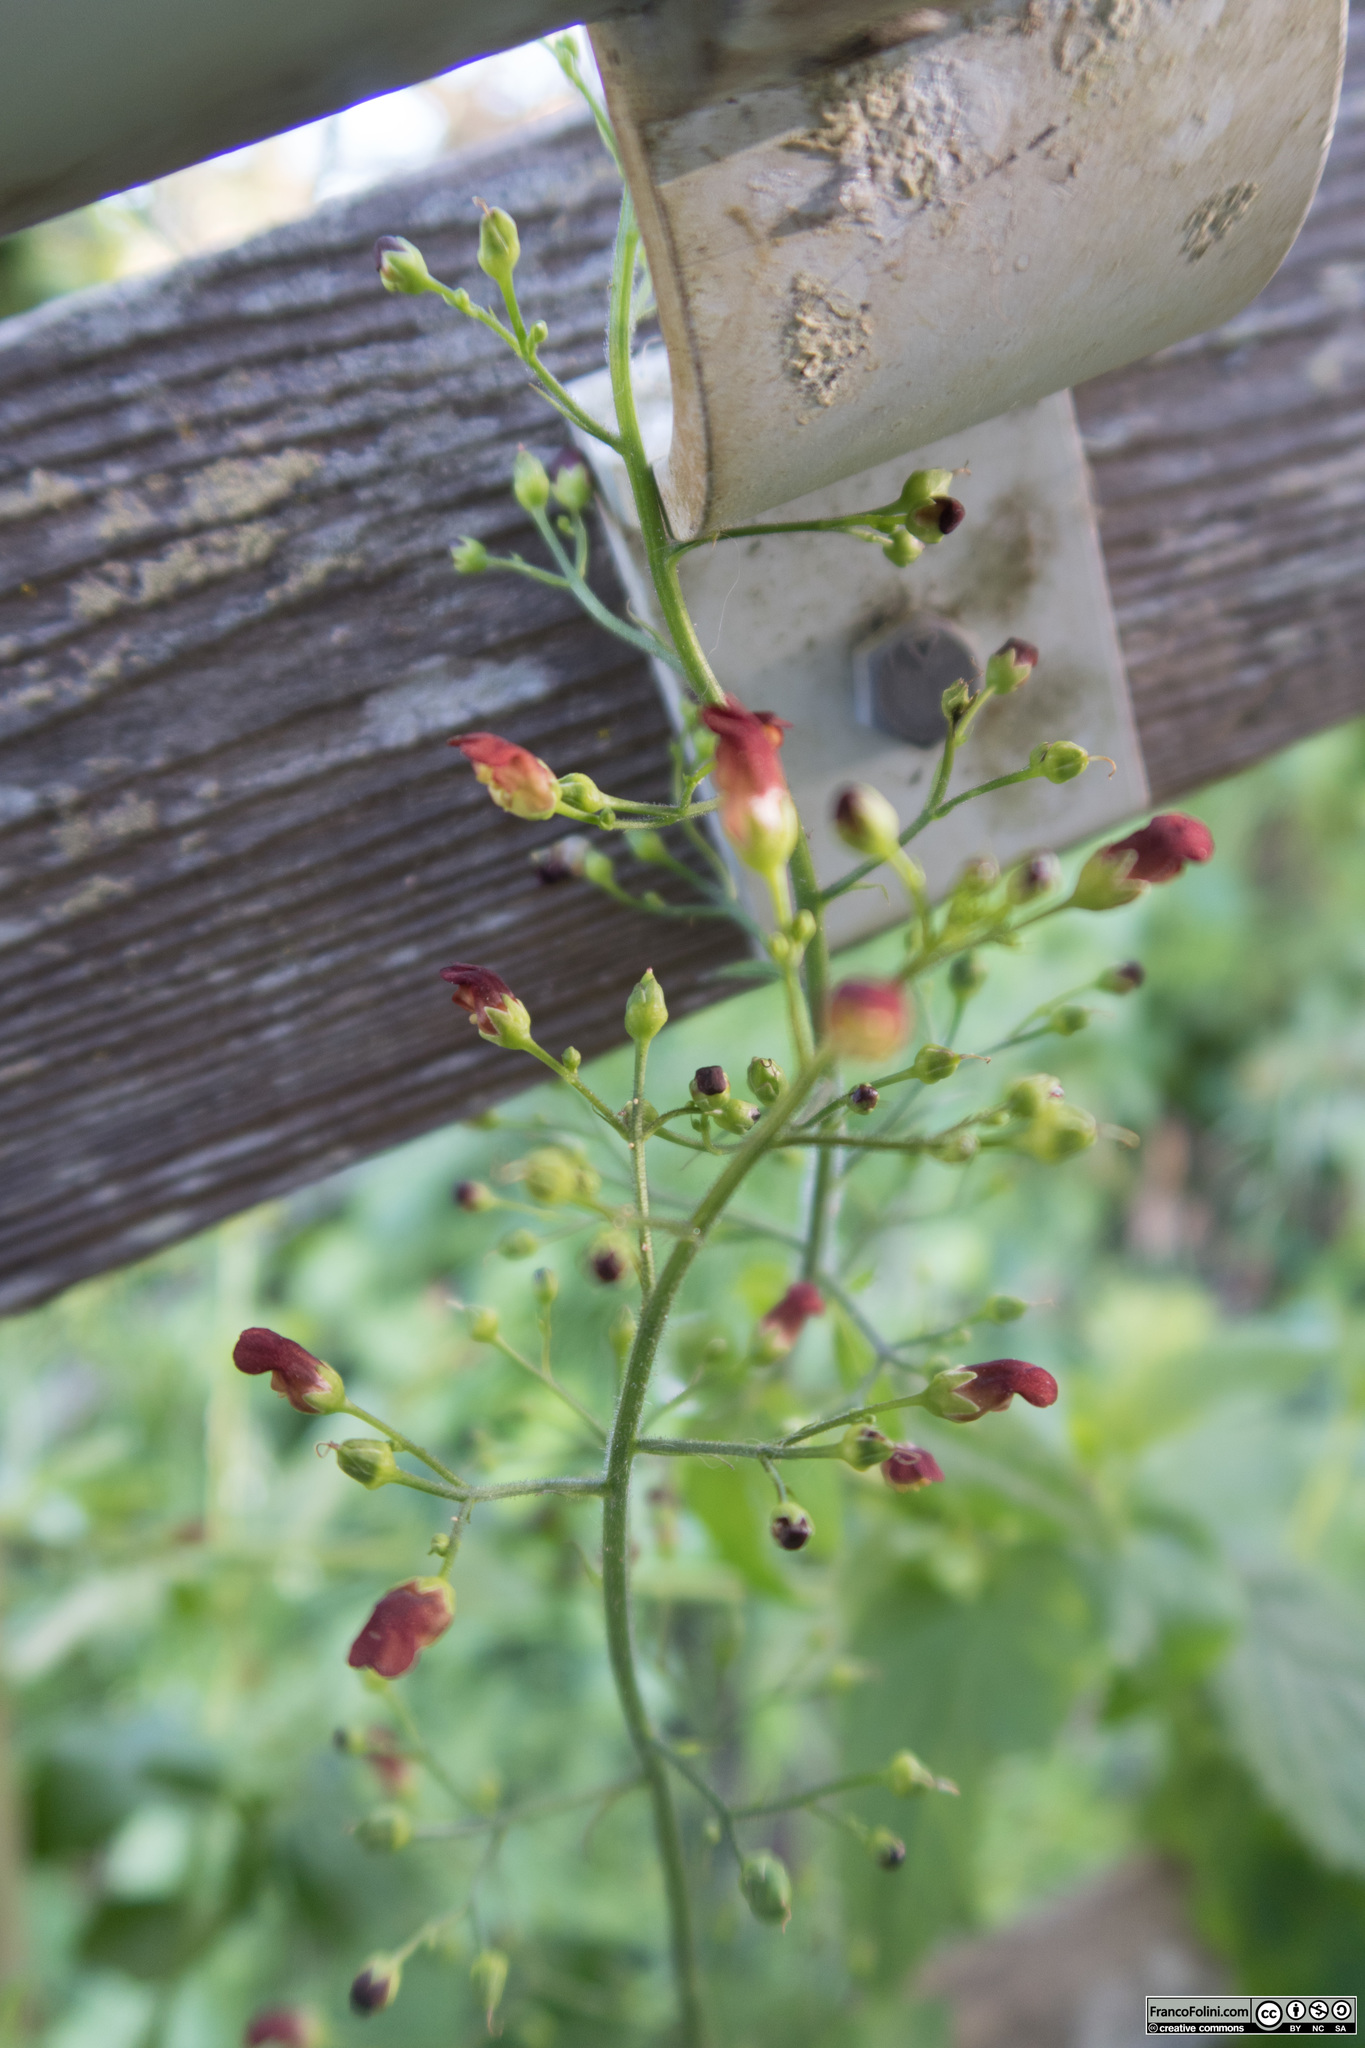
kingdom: Plantae
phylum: Tracheophyta
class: Magnoliopsida
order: Lamiales
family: Scrophulariaceae
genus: Scrophularia
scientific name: Scrophularia californica
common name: California figwort
